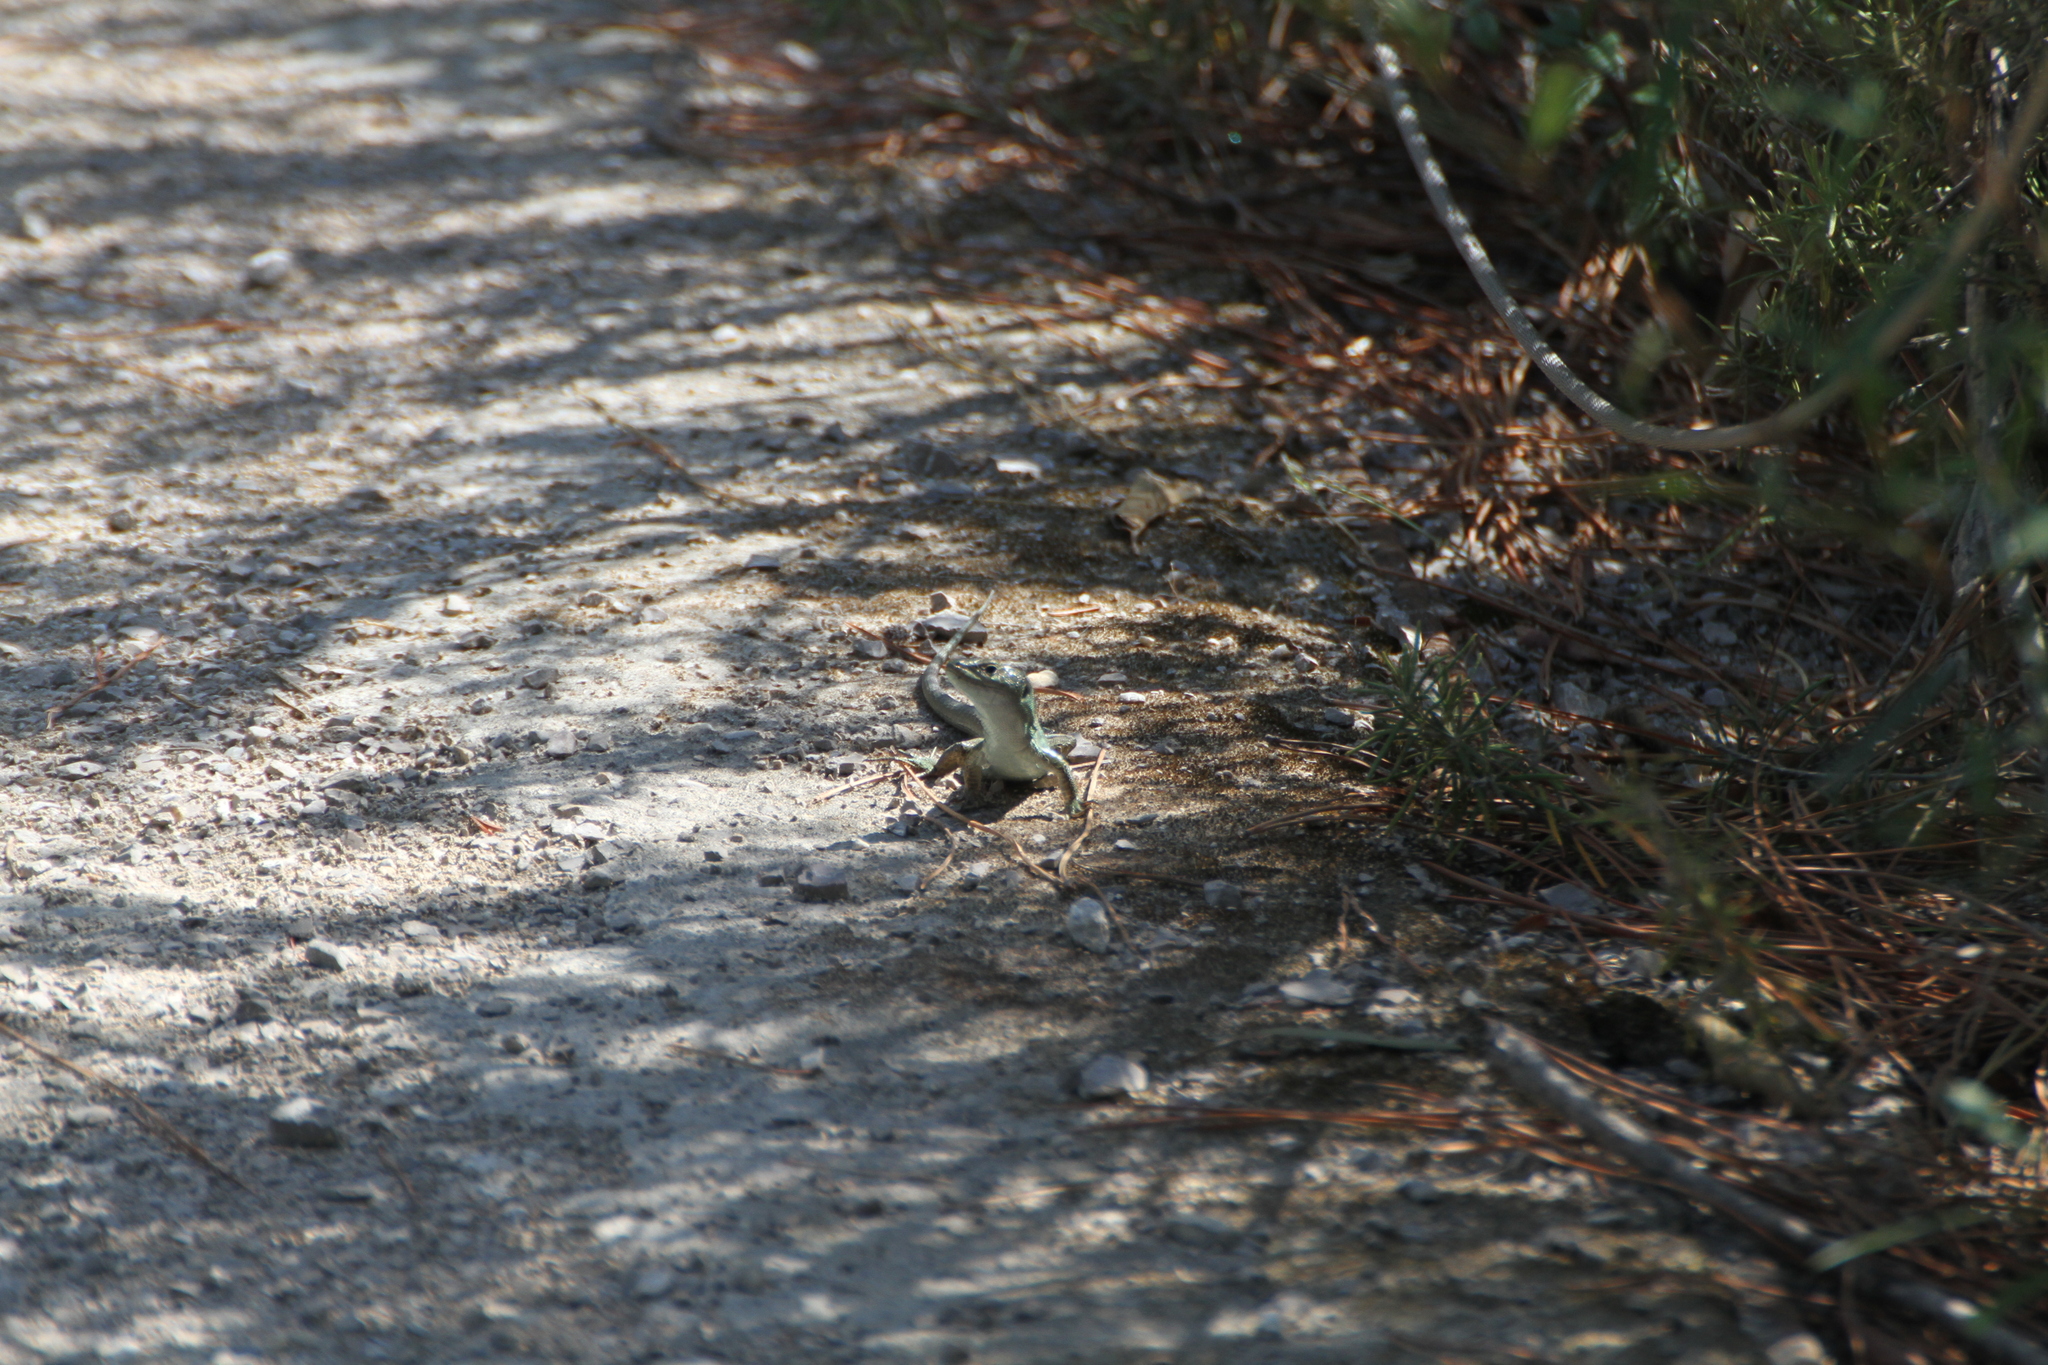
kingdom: Animalia
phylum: Chordata
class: Squamata
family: Lacertidae
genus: Podarcis
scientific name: Podarcis siculus
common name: Italian wall lizard
